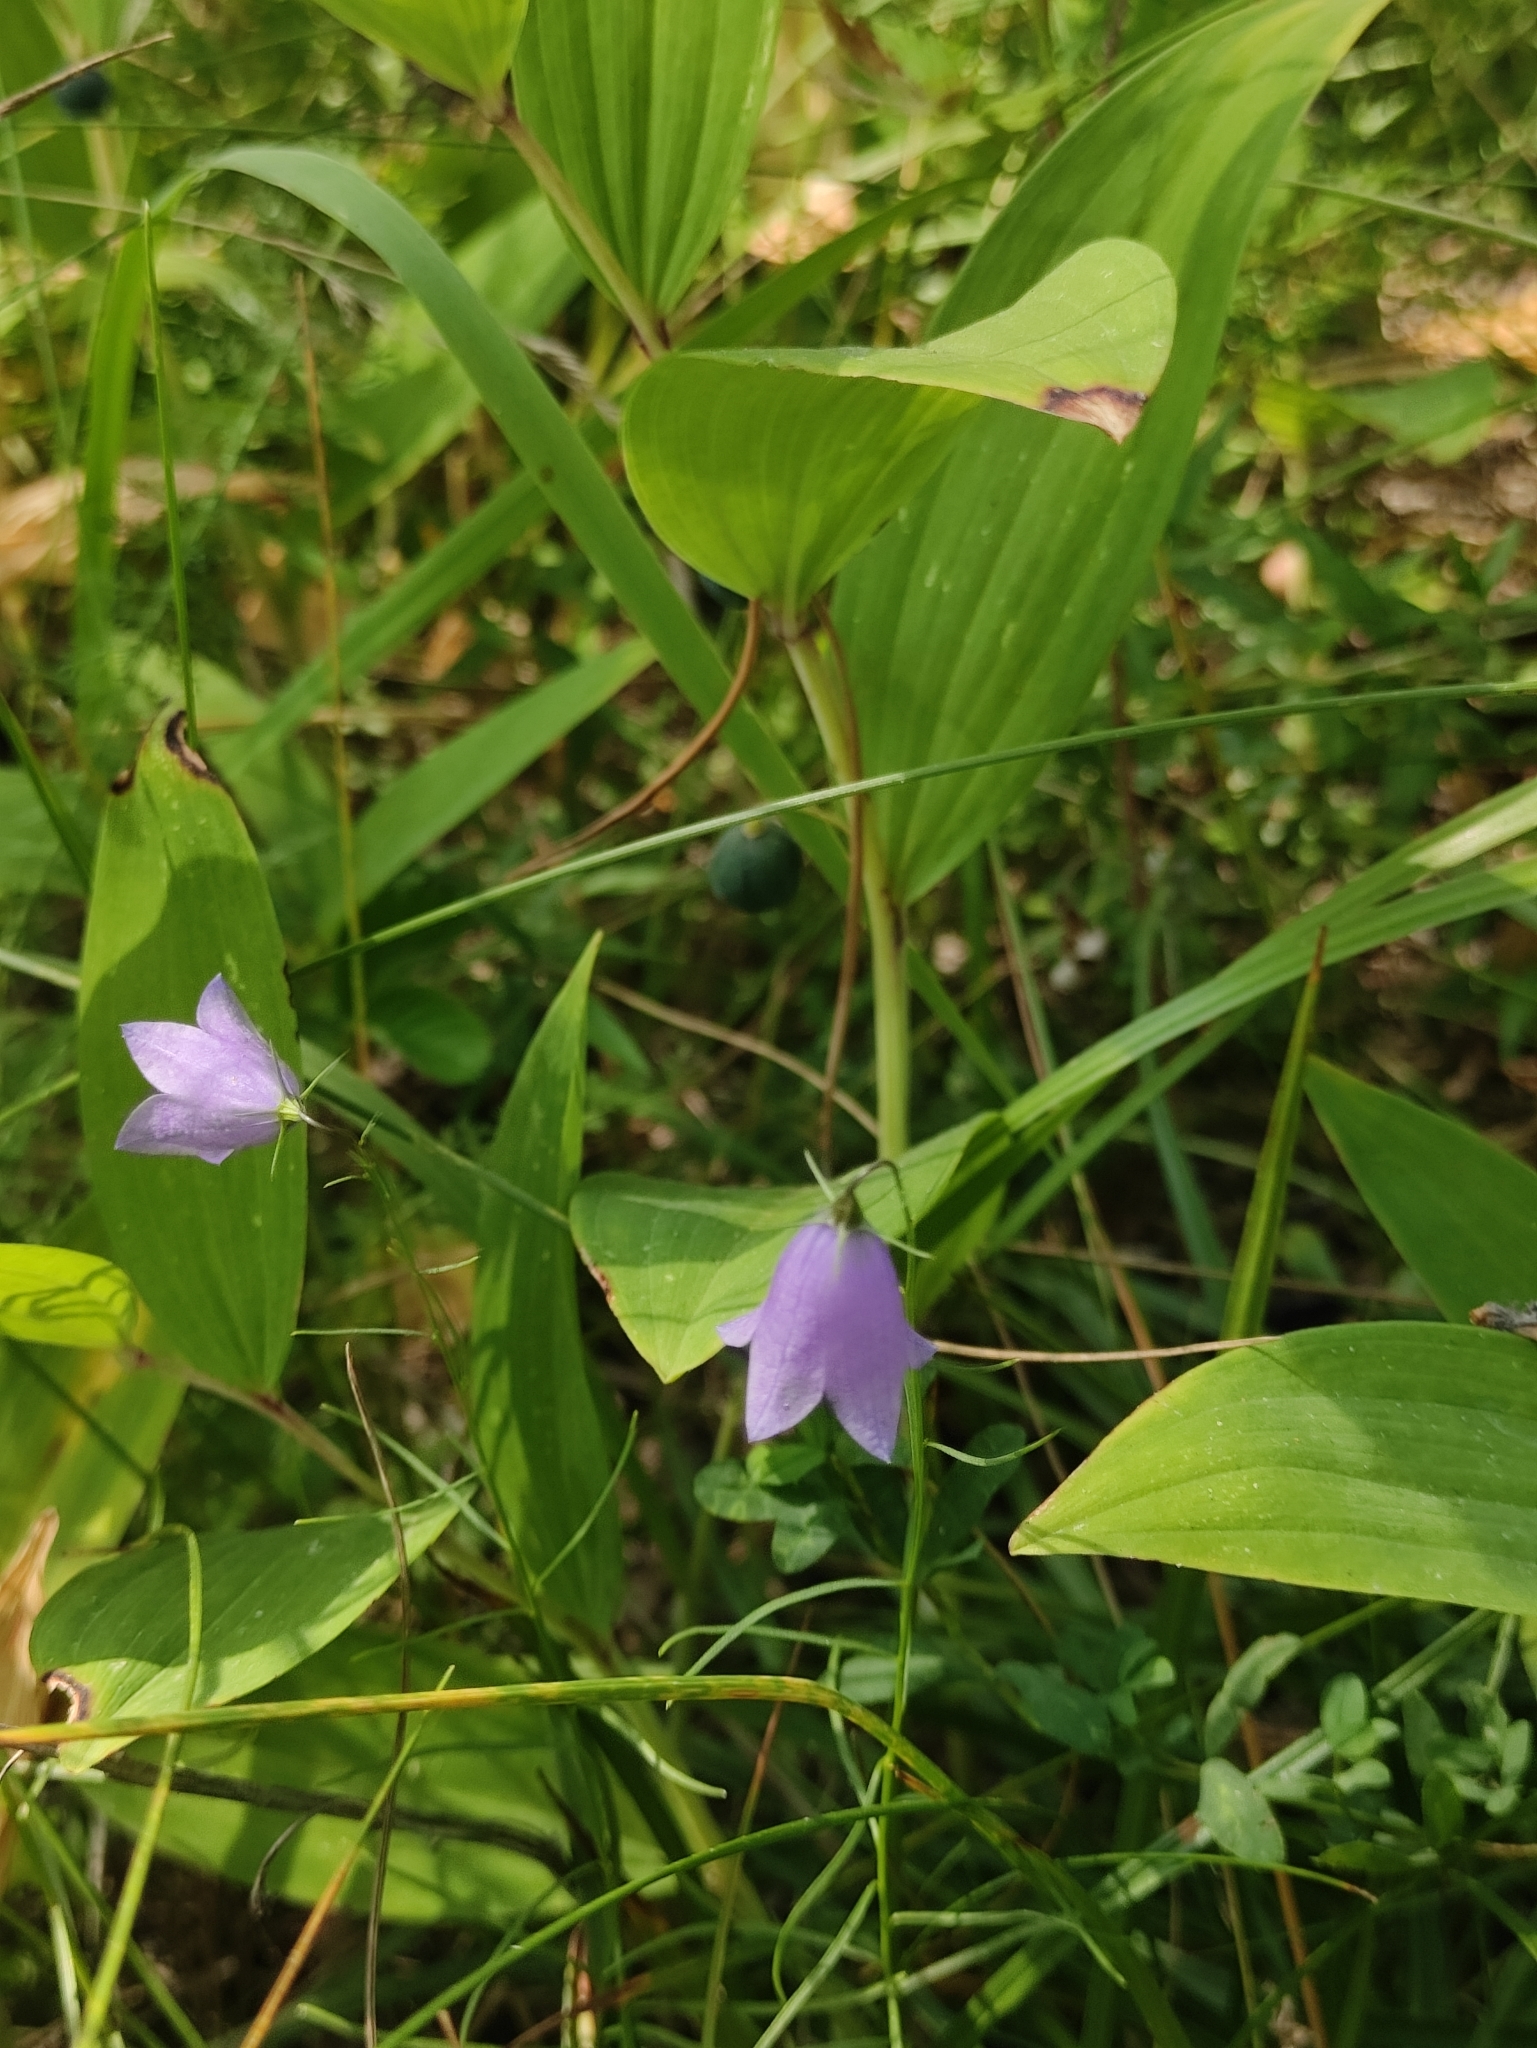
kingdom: Plantae
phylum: Tracheophyta
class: Magnoliopsida
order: Asterales
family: Campanulaceae
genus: Campanula
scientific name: Campanula rotundifolia
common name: Harebell
